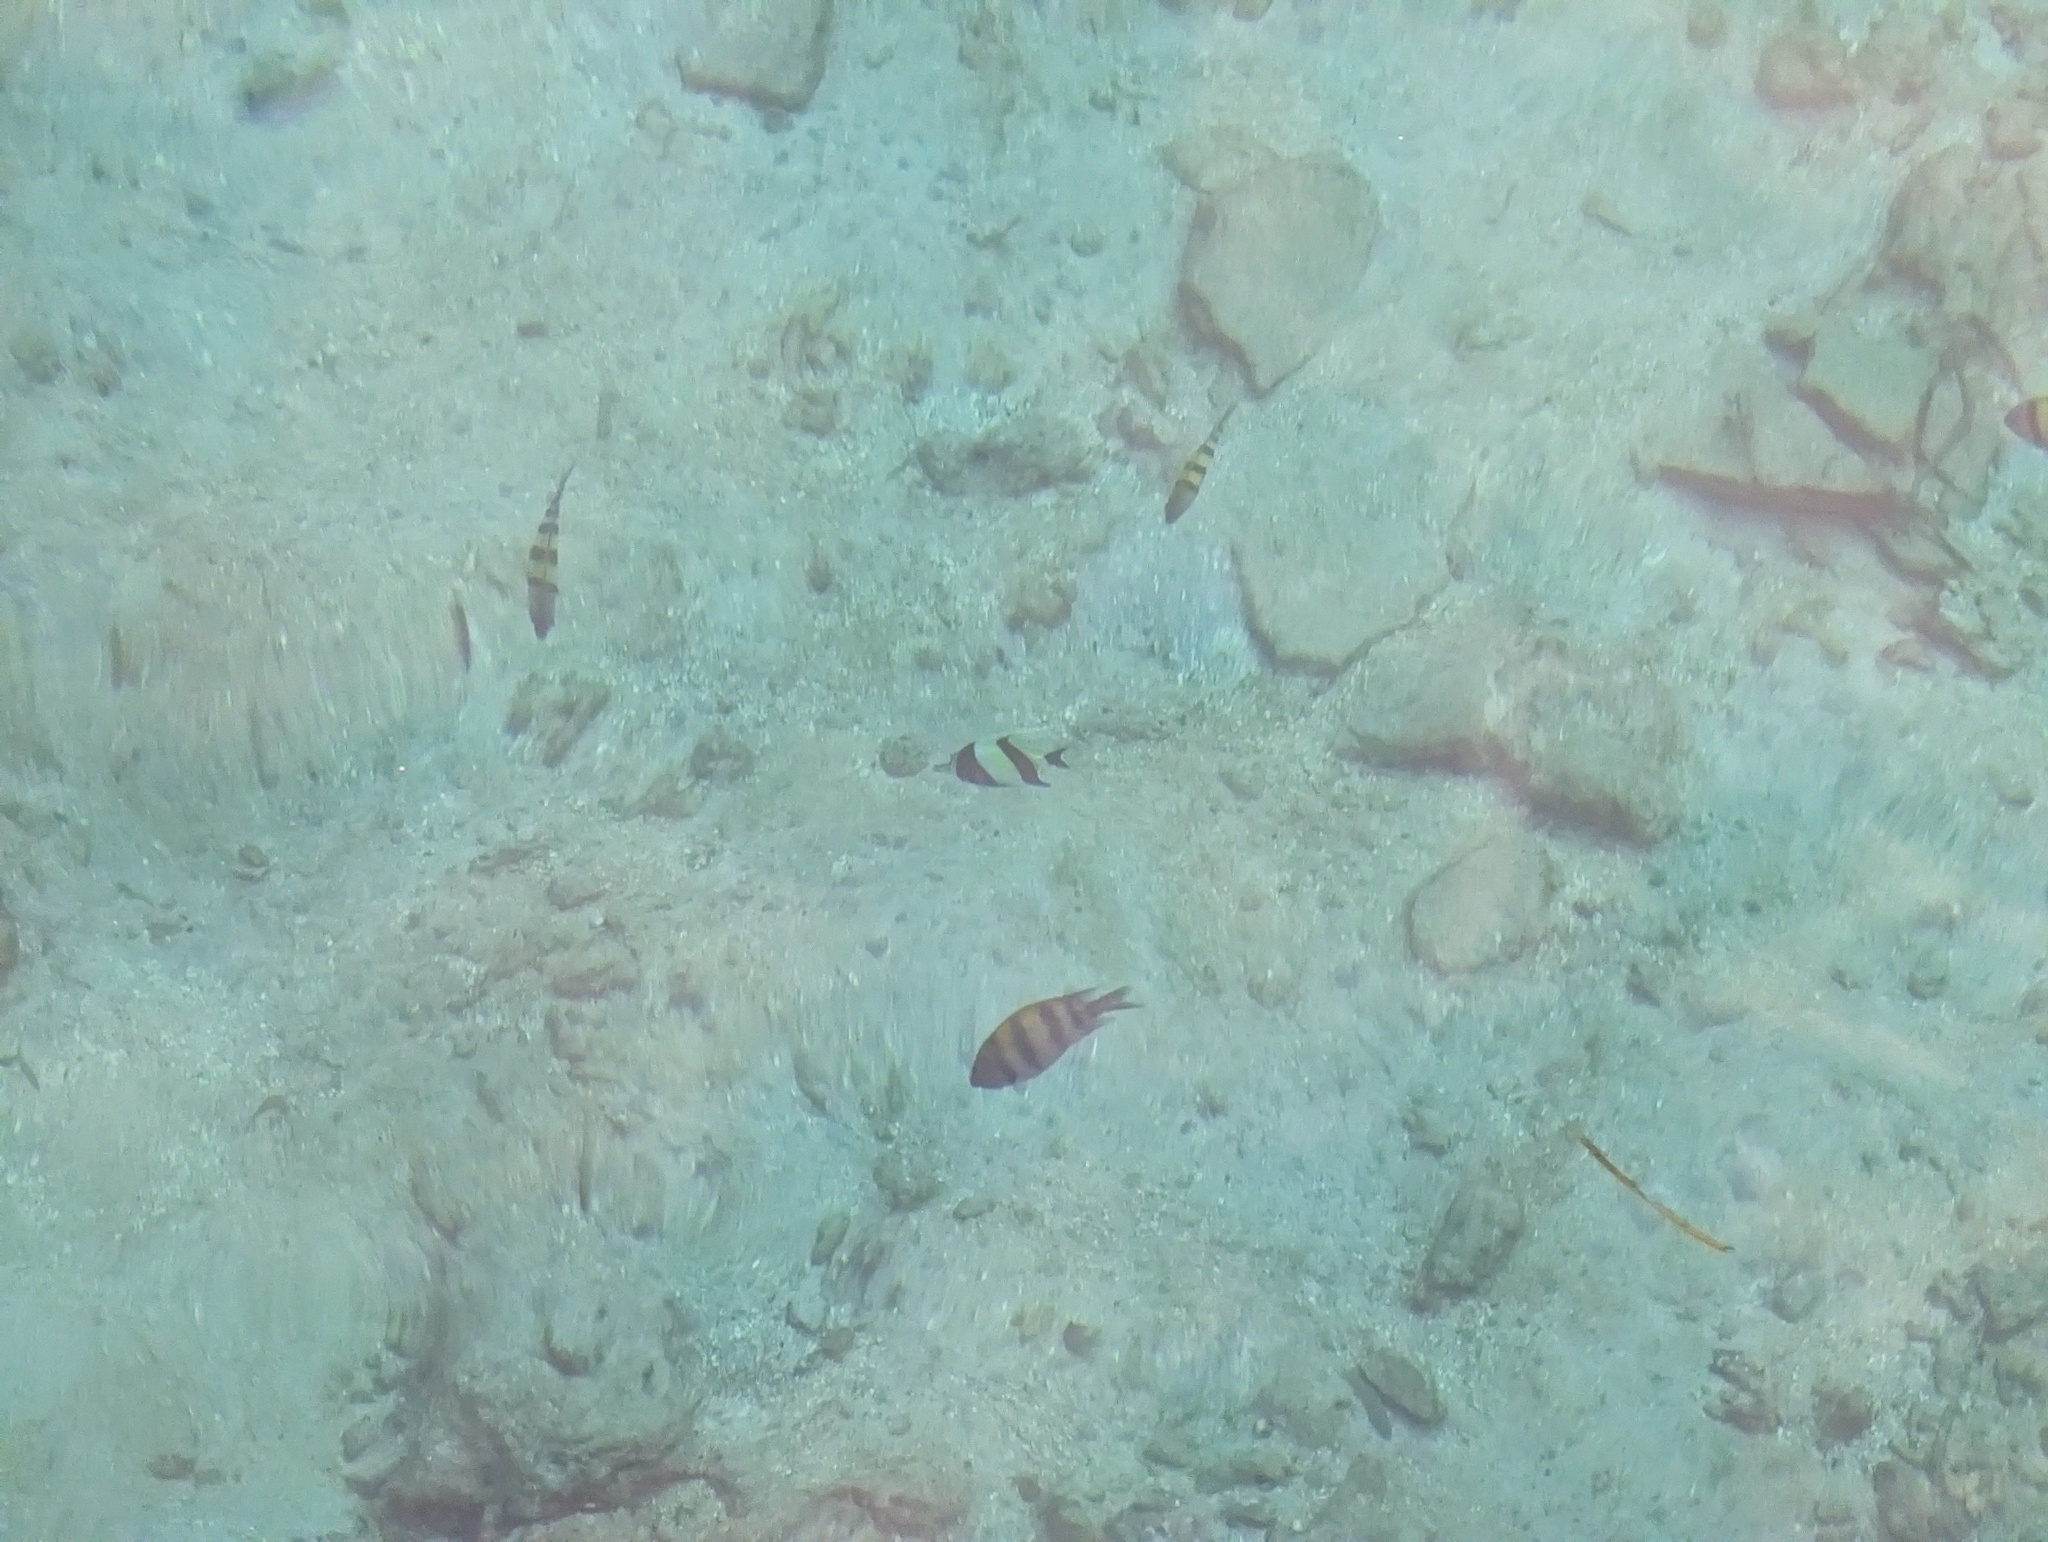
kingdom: Animalia
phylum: Chordata
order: Perciformes
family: Zanclidae
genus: Zanclus
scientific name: Zanclus cornutus
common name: Moorish idol
